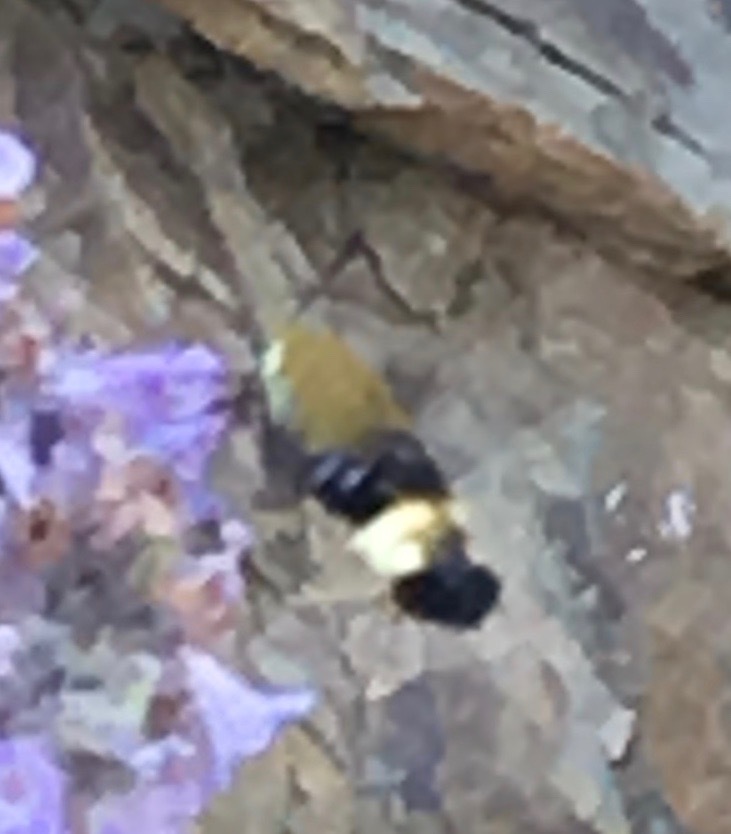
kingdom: Animalia
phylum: Arthropoda
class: Insecta
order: Lepidoptera
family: Sphingidae
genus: Hemaris
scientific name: Hemaris thetis
